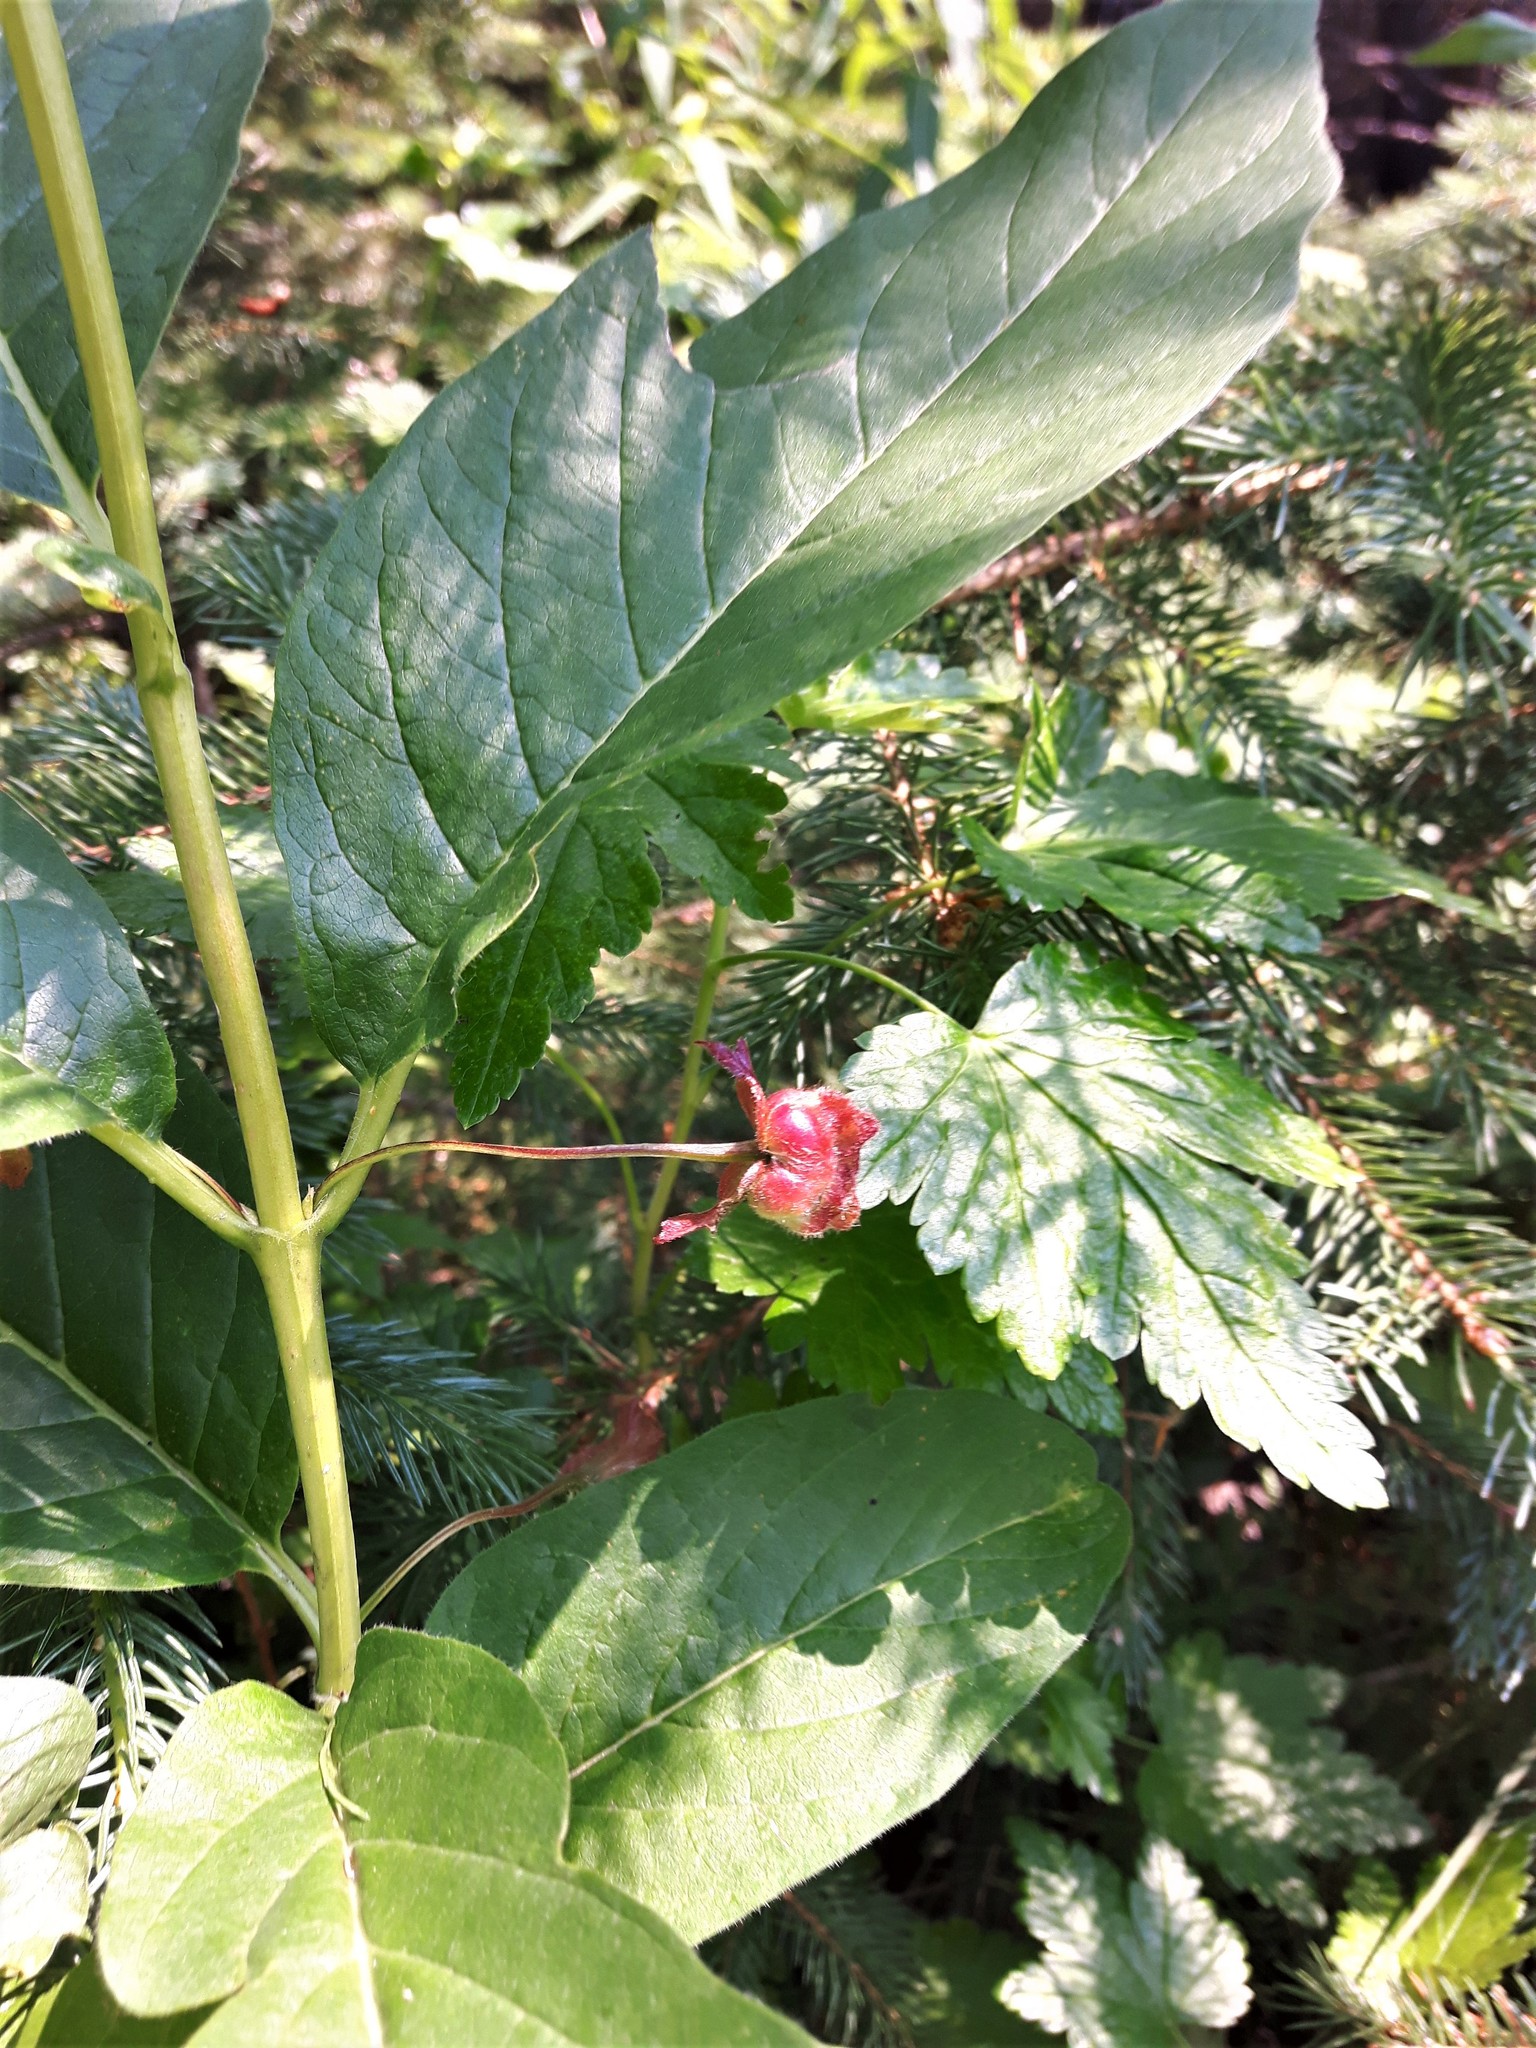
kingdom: Plantae
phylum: Tracheophyta
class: Magnoliopsida
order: Dipsacales
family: Caprifoliaceae
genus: Lonicera
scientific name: Lonicera involucrata
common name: Californian honeysuckle
